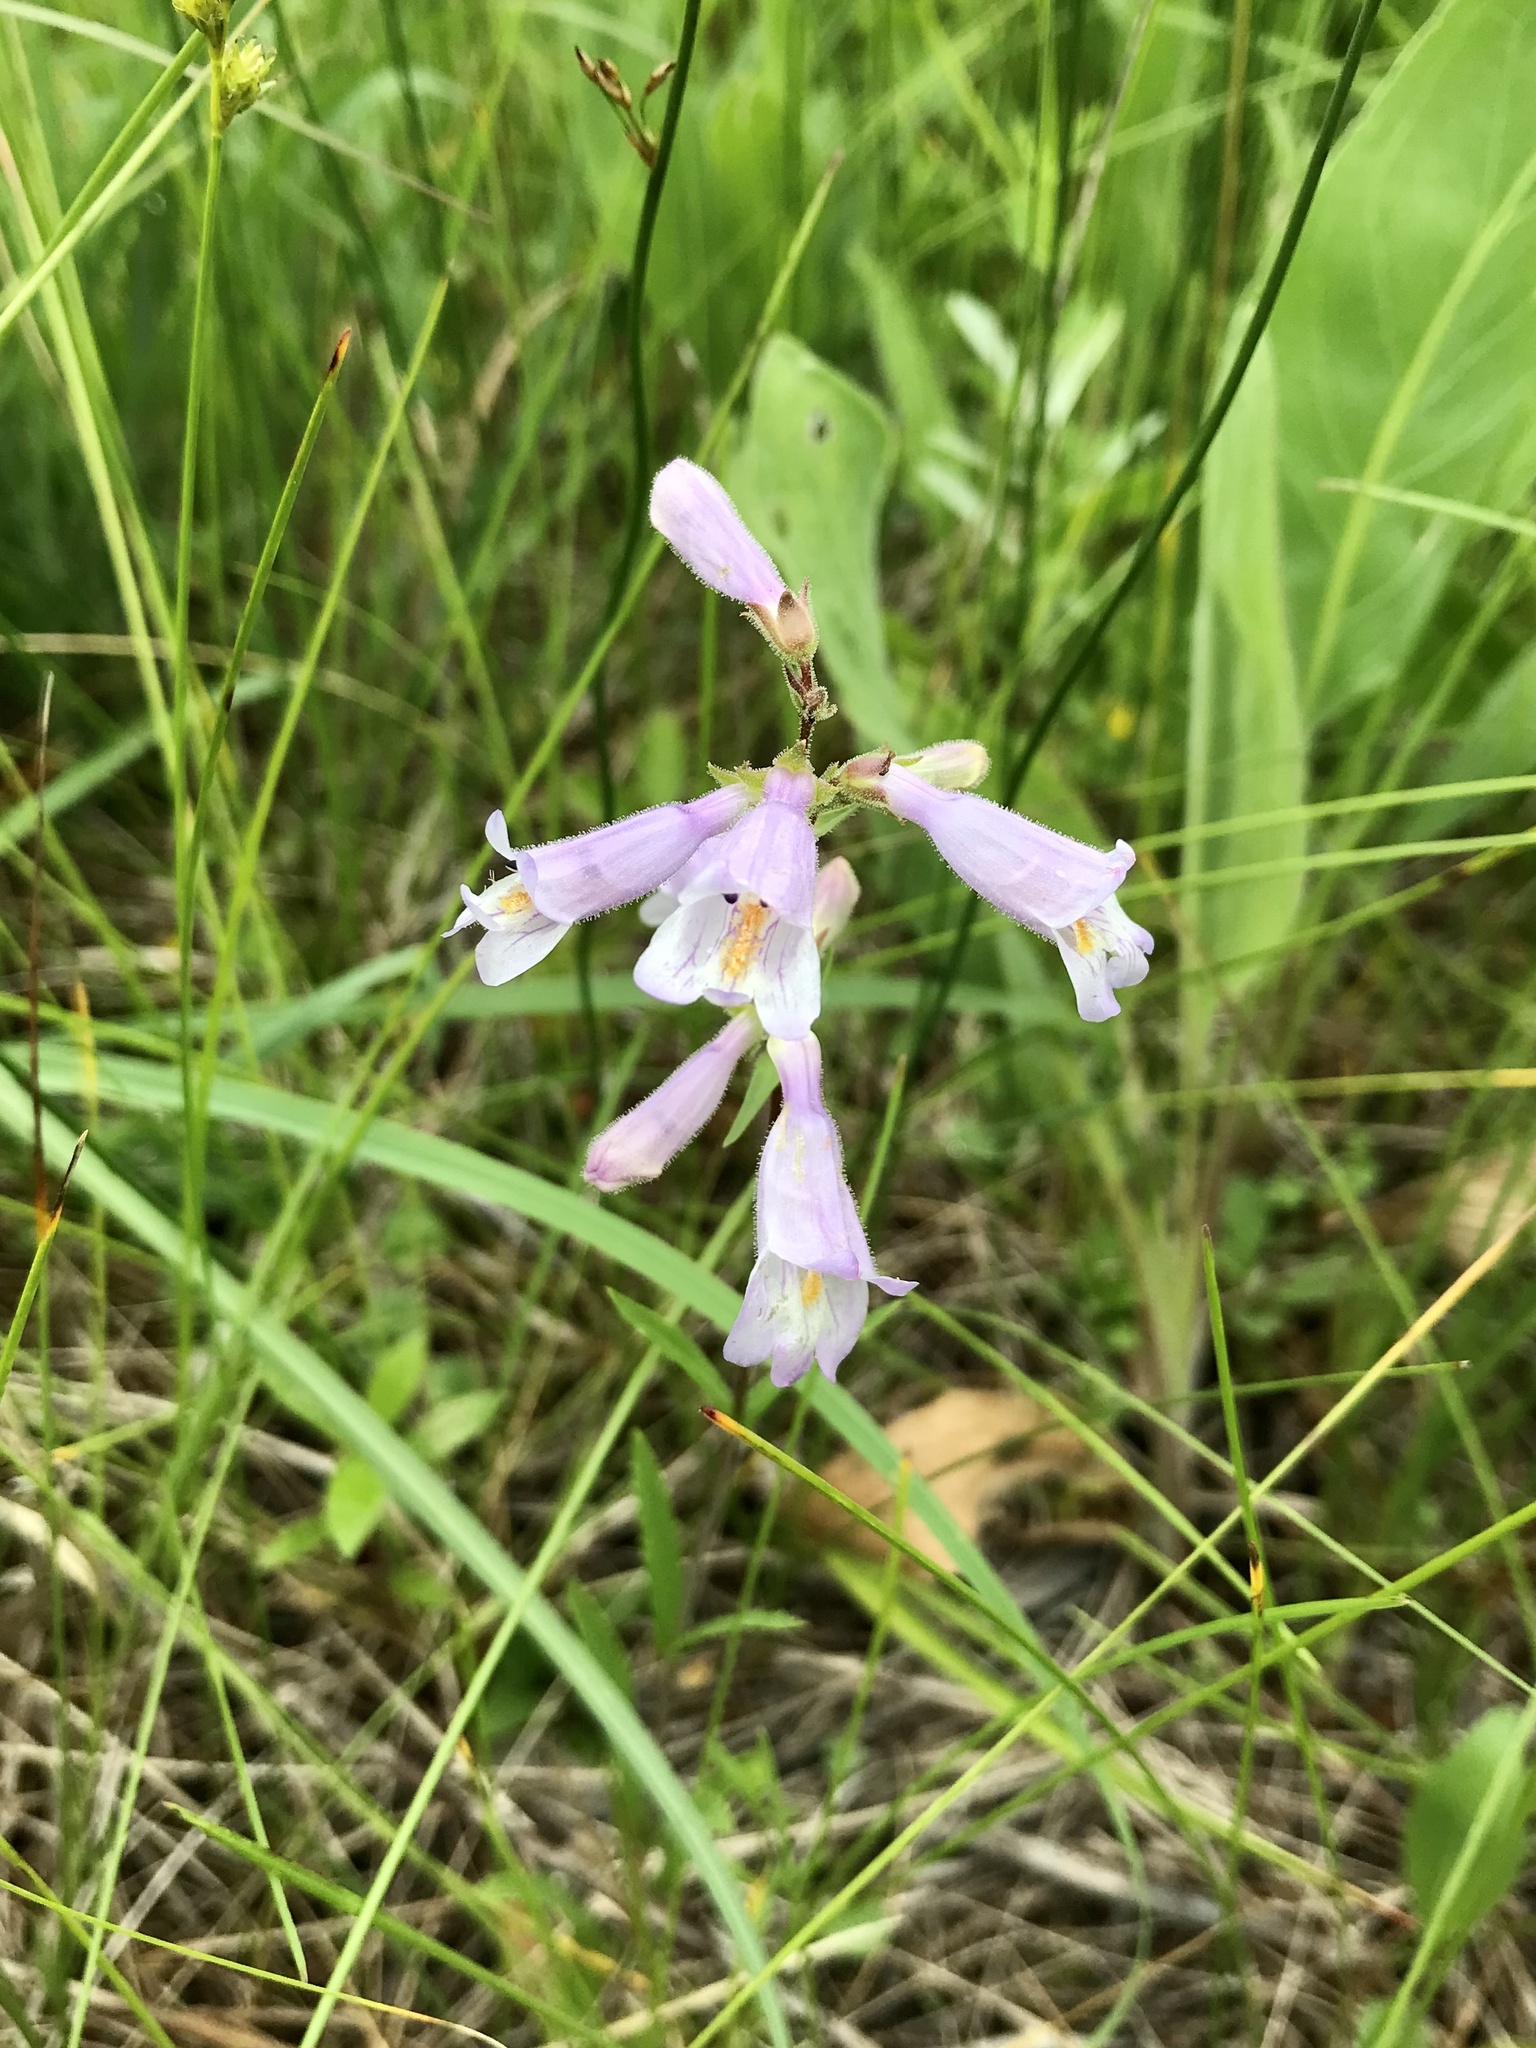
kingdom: Plantae
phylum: Tracheophyta
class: Magnoliopsida
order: Lamiales
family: Plantaginaceae
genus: Penstemon
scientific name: Penstemon gracilis
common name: Slender beardtongue
